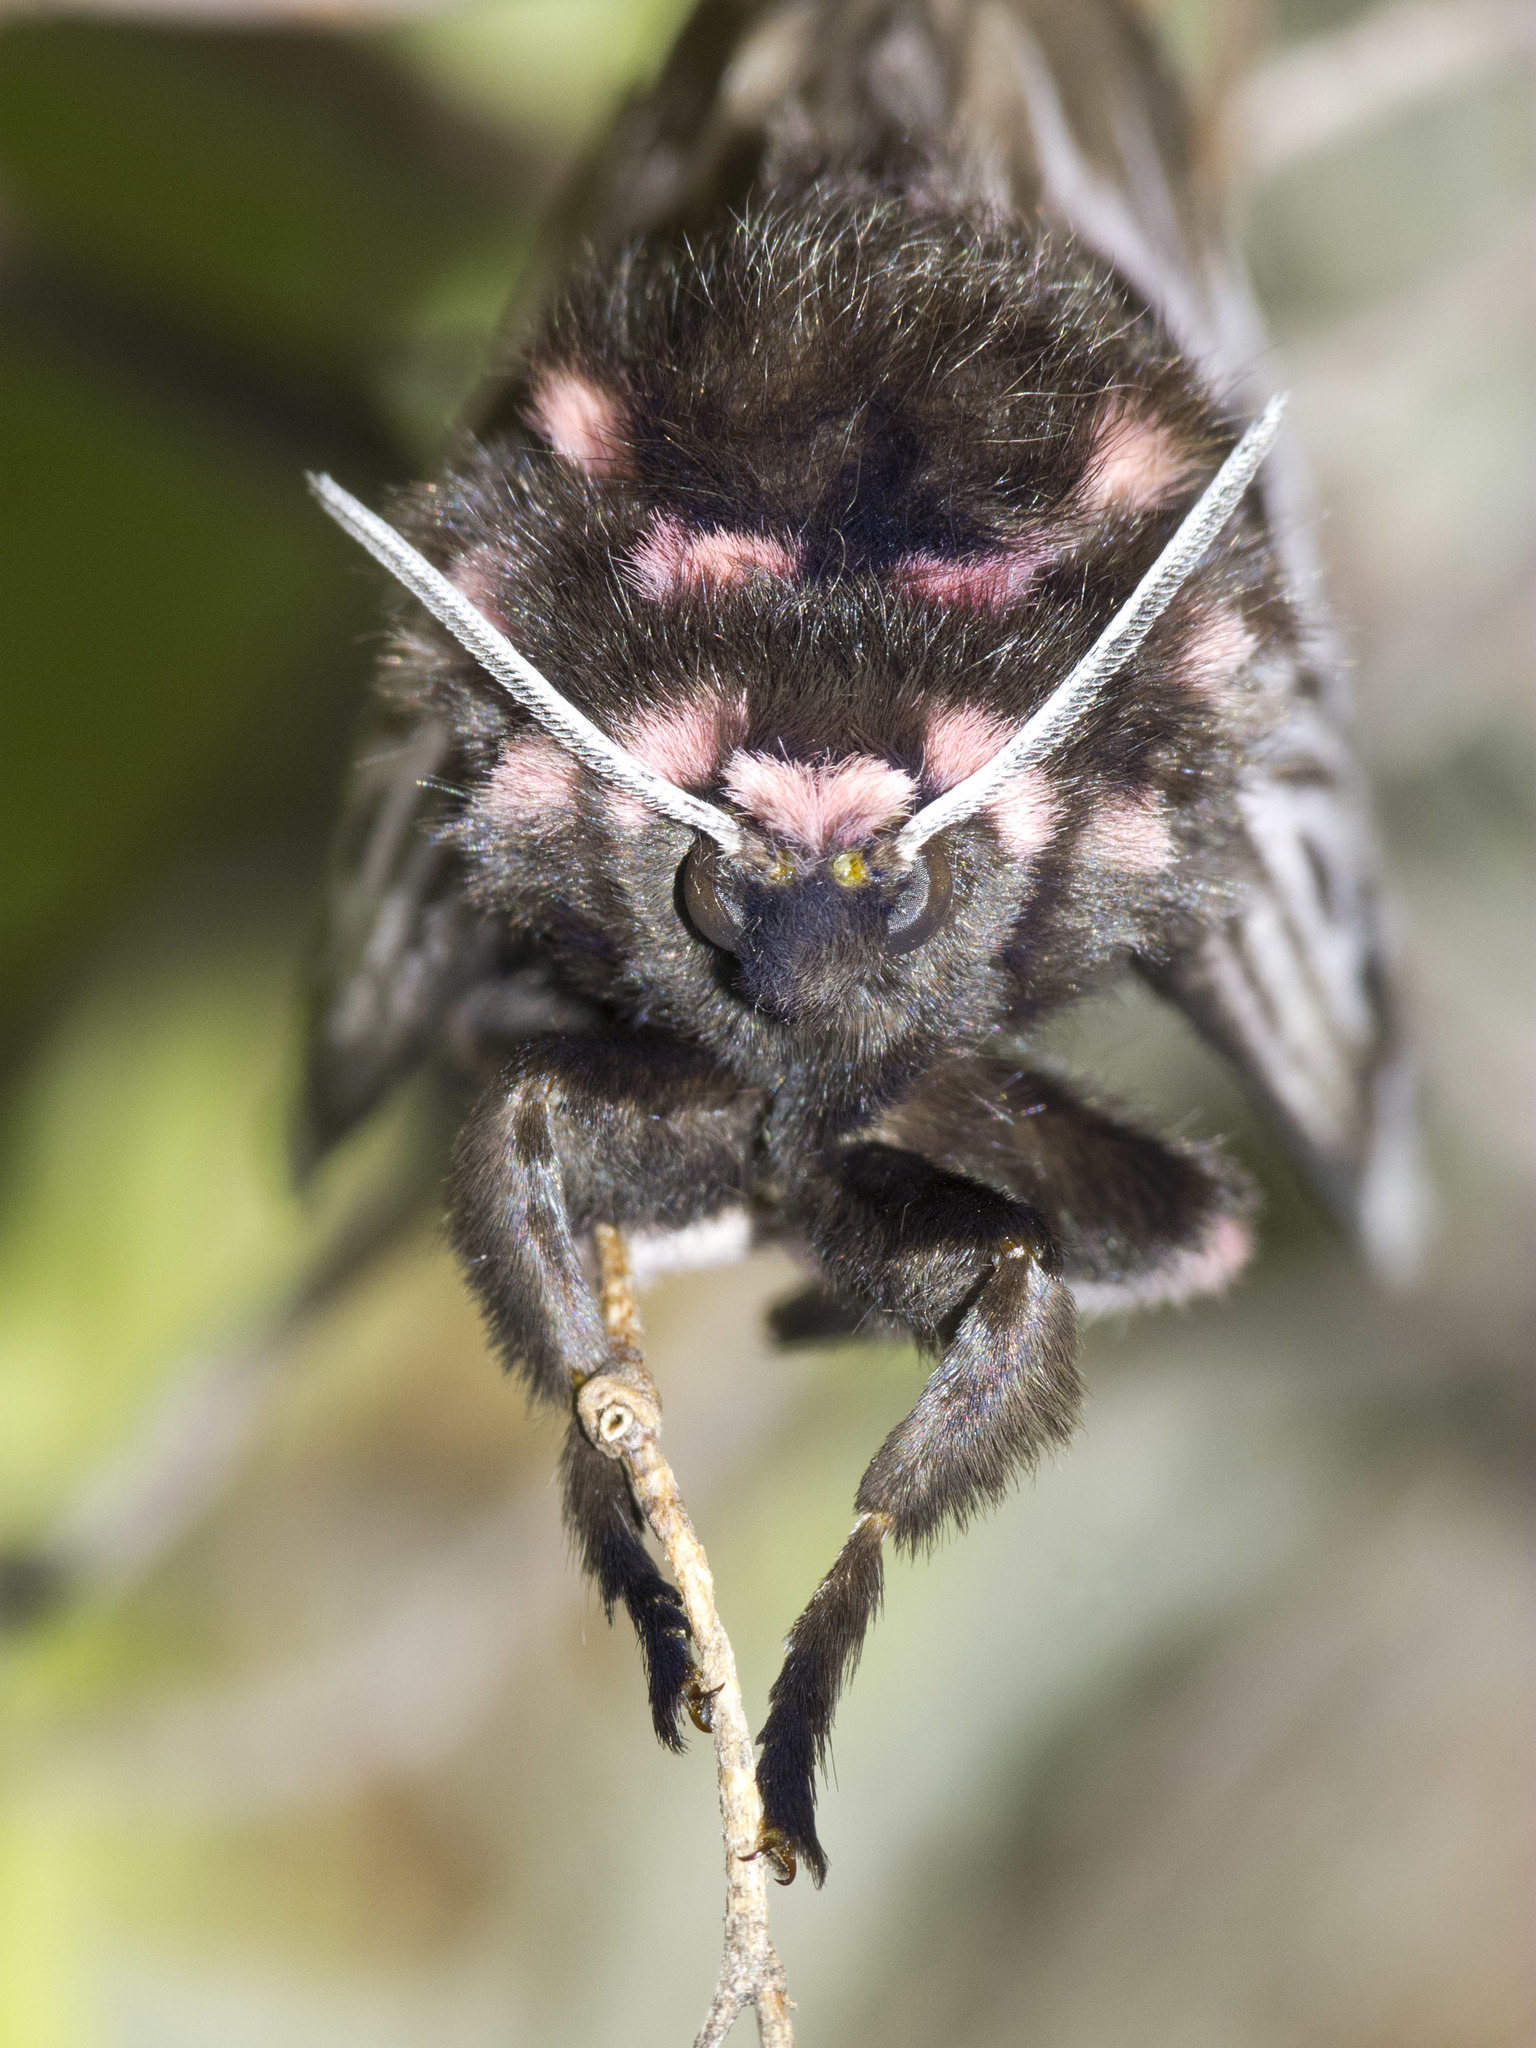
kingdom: Animalia
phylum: Arthropoda
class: Insecta
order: Lepidoptera
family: Megalopygidae
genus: Megalopyge
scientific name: Megalopyge lanata
